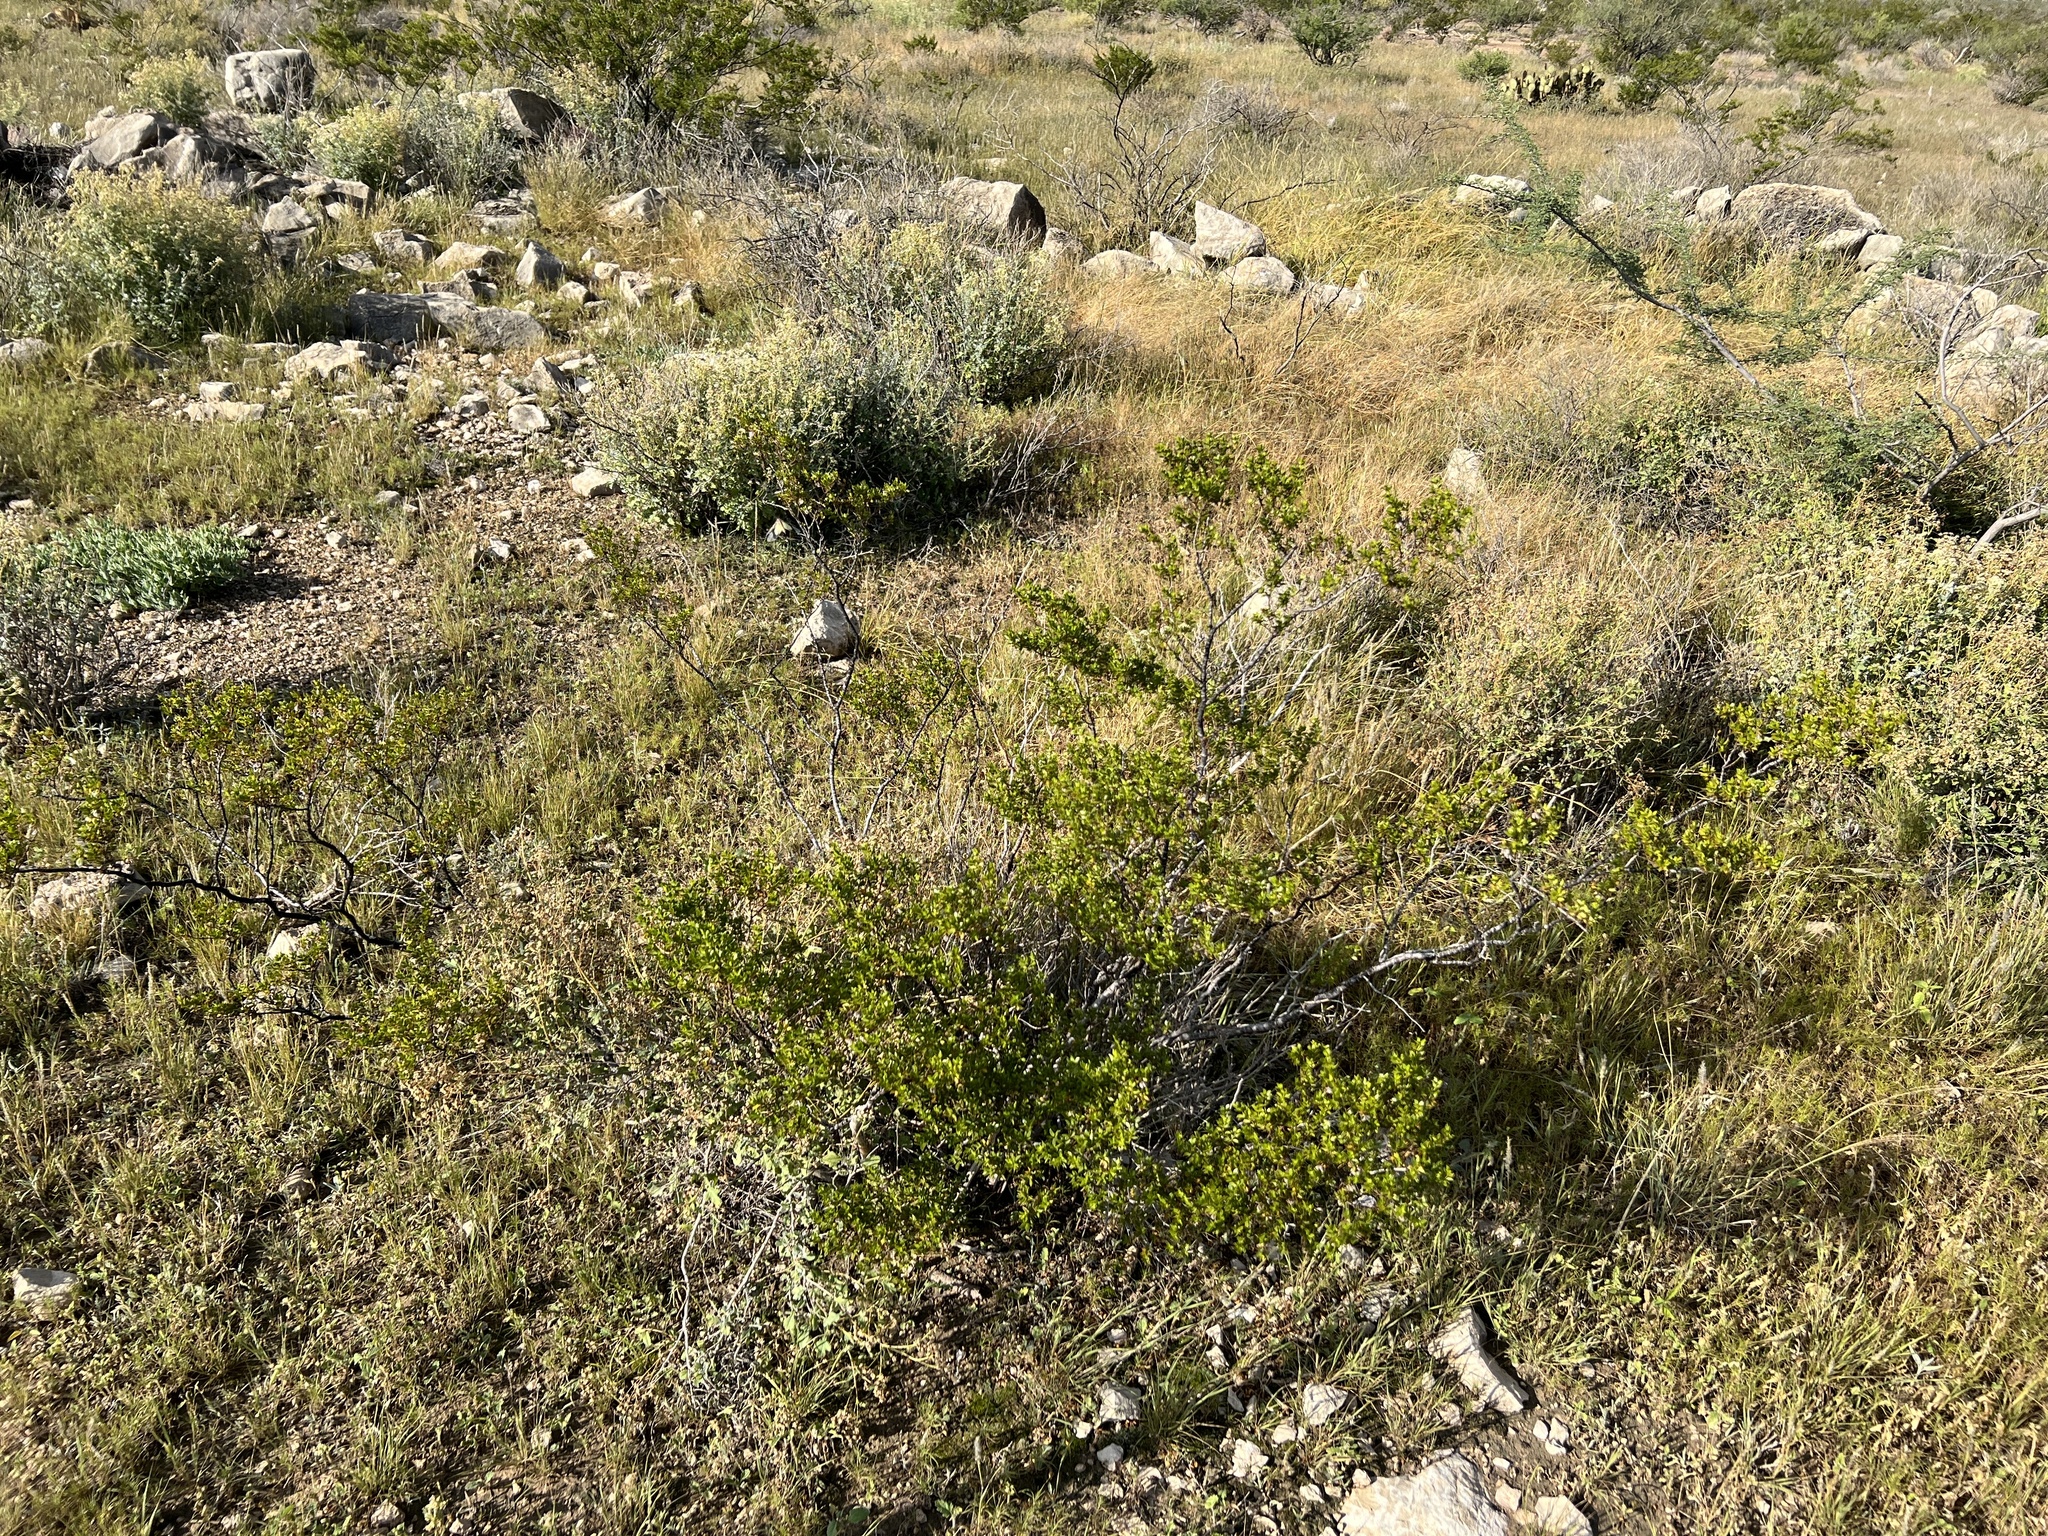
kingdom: Plantae
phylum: Tracheophyta
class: Magnoliopsida
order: Zygophyllales
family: Zygophyllaceae
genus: Larrea
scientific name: Larrea tridentata
